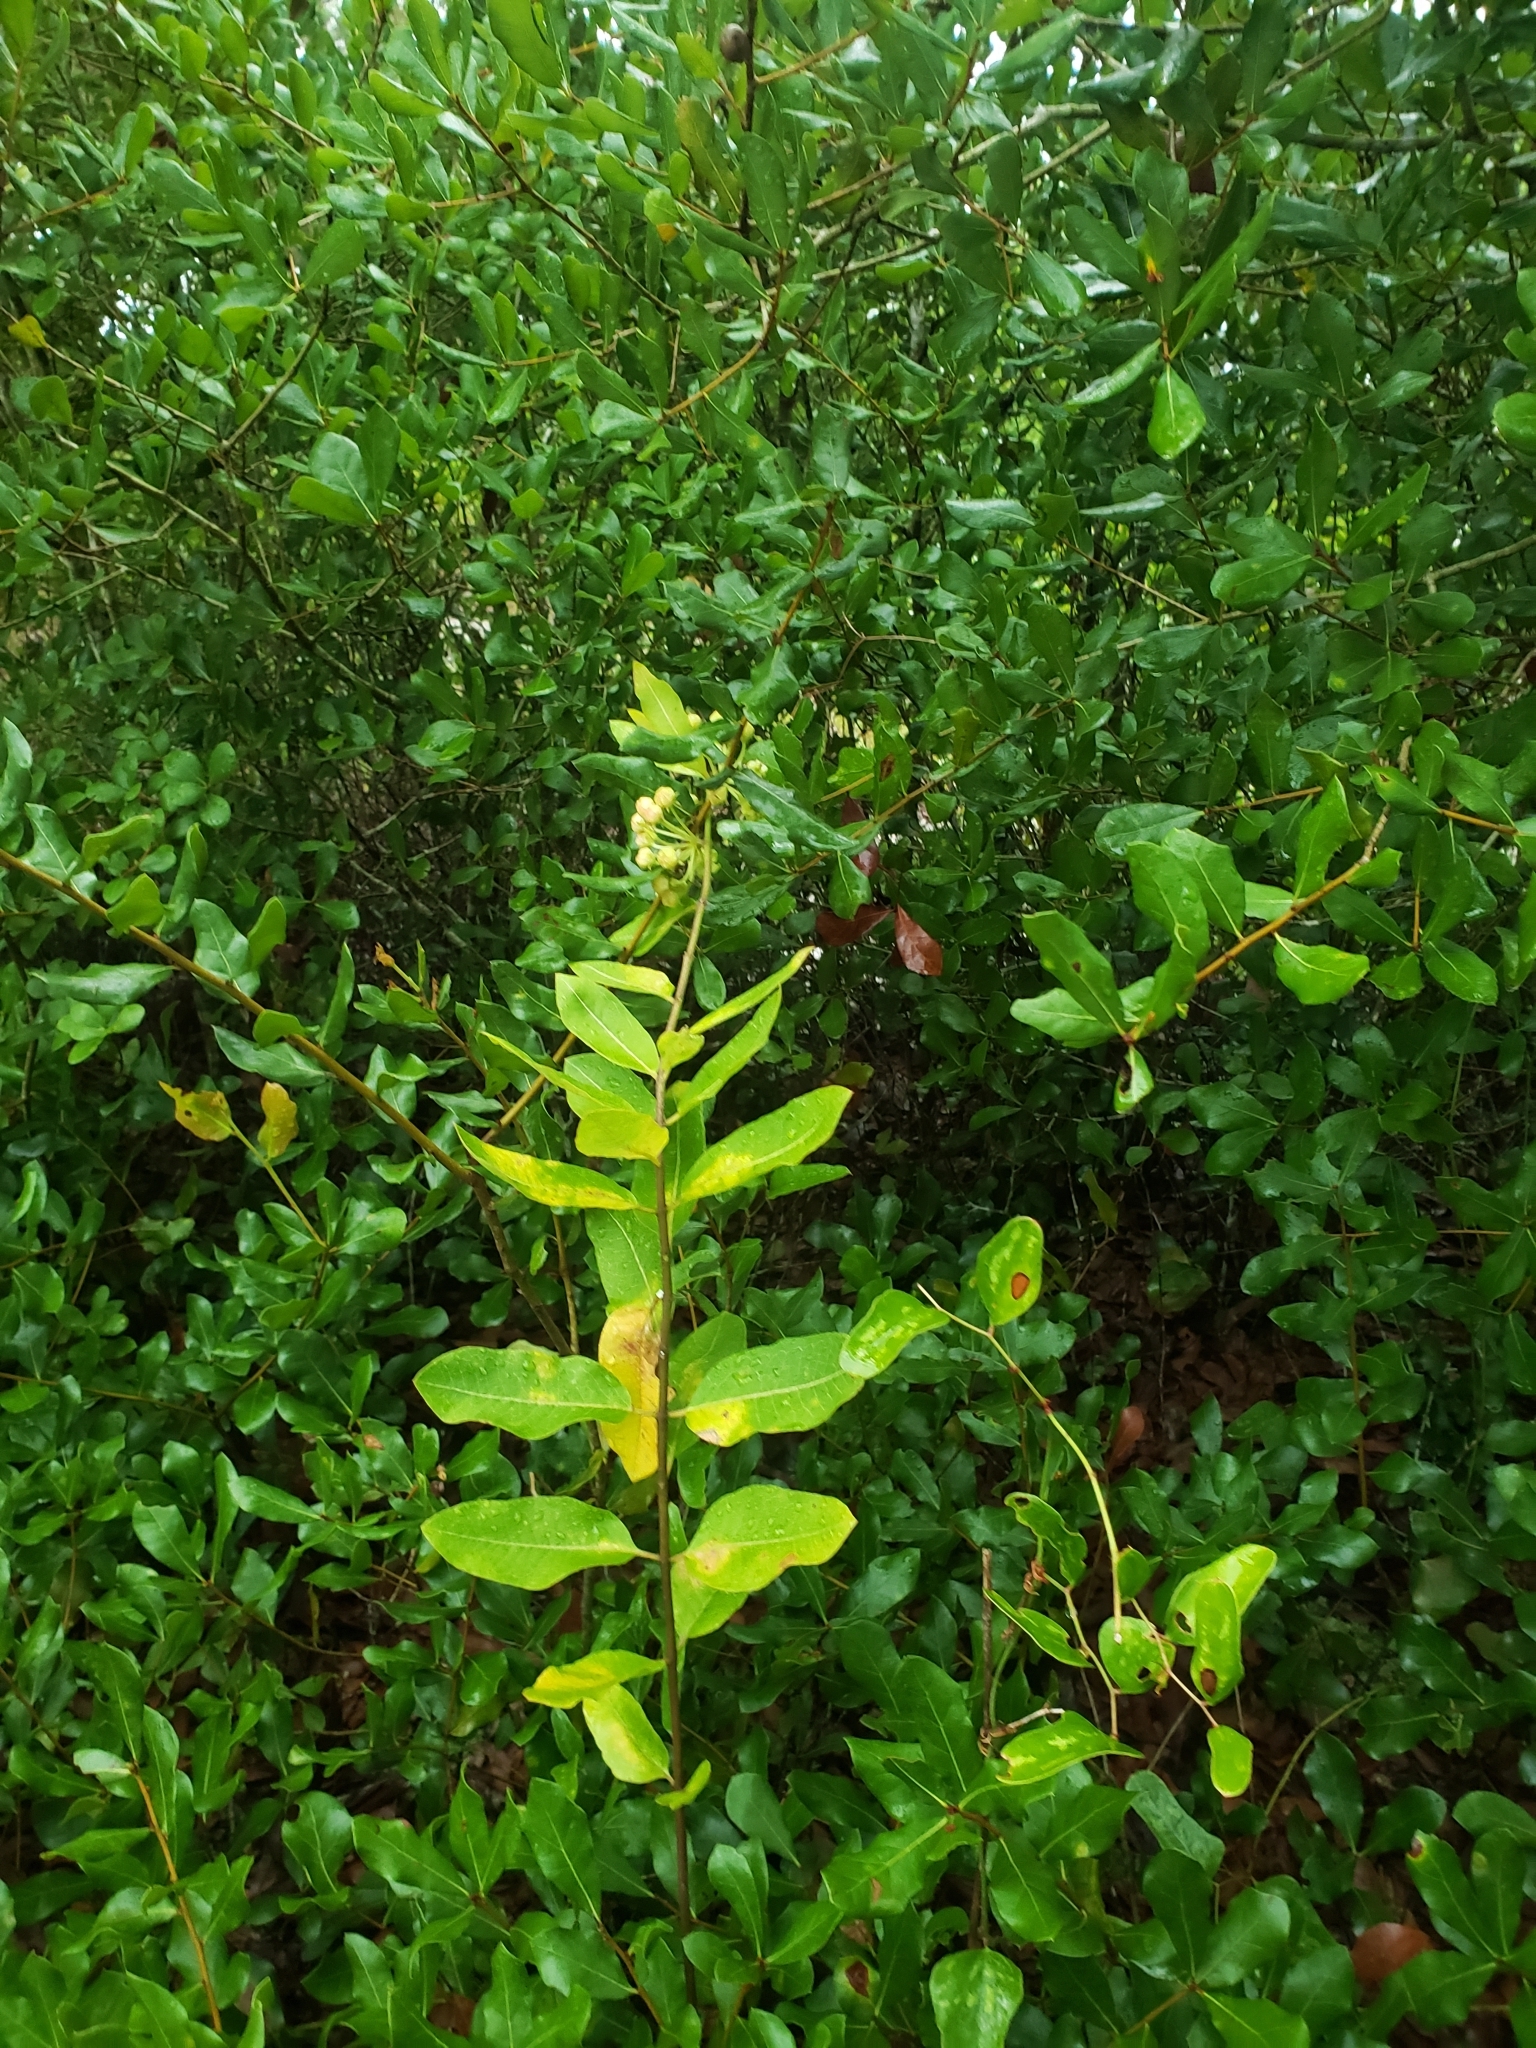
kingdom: Plantae
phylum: Tracheophyta
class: Magnoliopsida
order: Gentianales
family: Apocynaceae
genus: Asclepias
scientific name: Asclepias tomentosa
